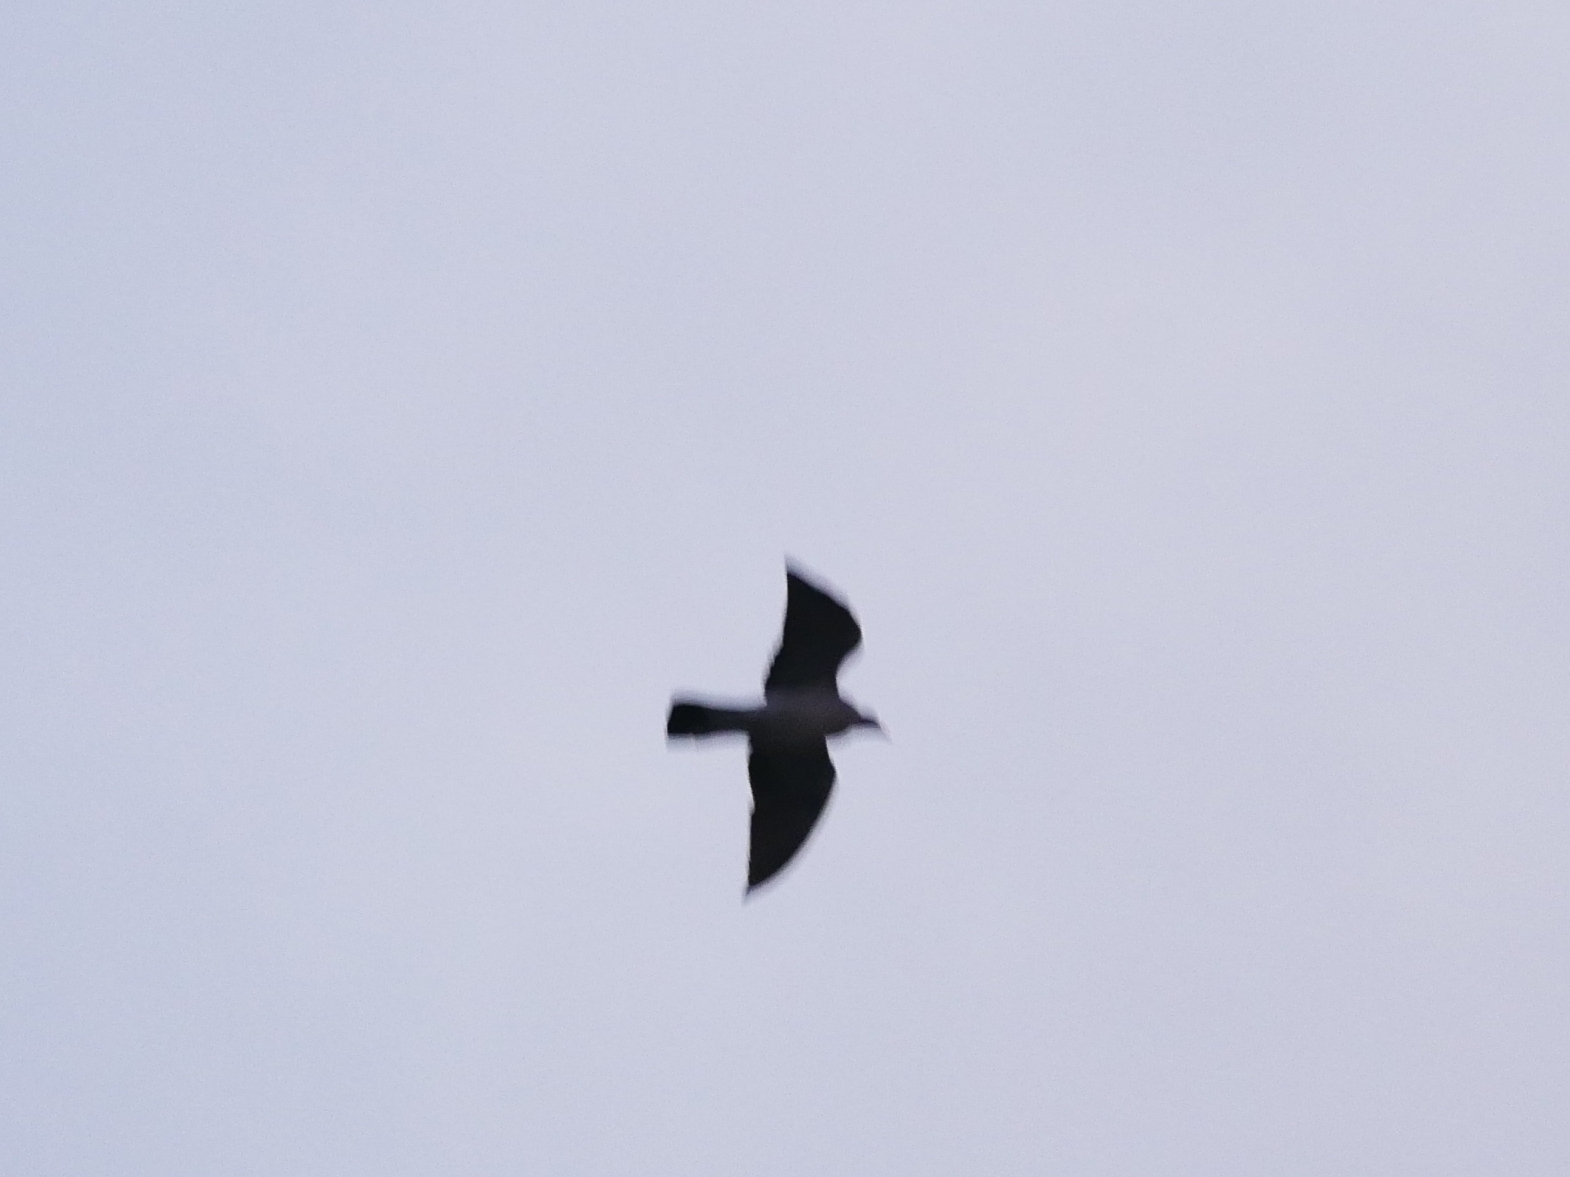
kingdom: Animalia
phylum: Chordata
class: Aves
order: Columbiformes
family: Columbidae
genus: Columba
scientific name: Columba palumbus
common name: Common wood pigeon
